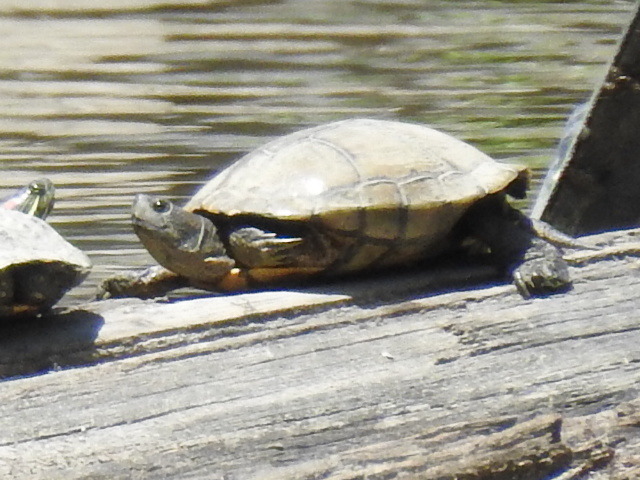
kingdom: Animalia
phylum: Chordata
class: Testudines
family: Emydidae
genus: Trachemys
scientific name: Trachemys scripta
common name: Slider
